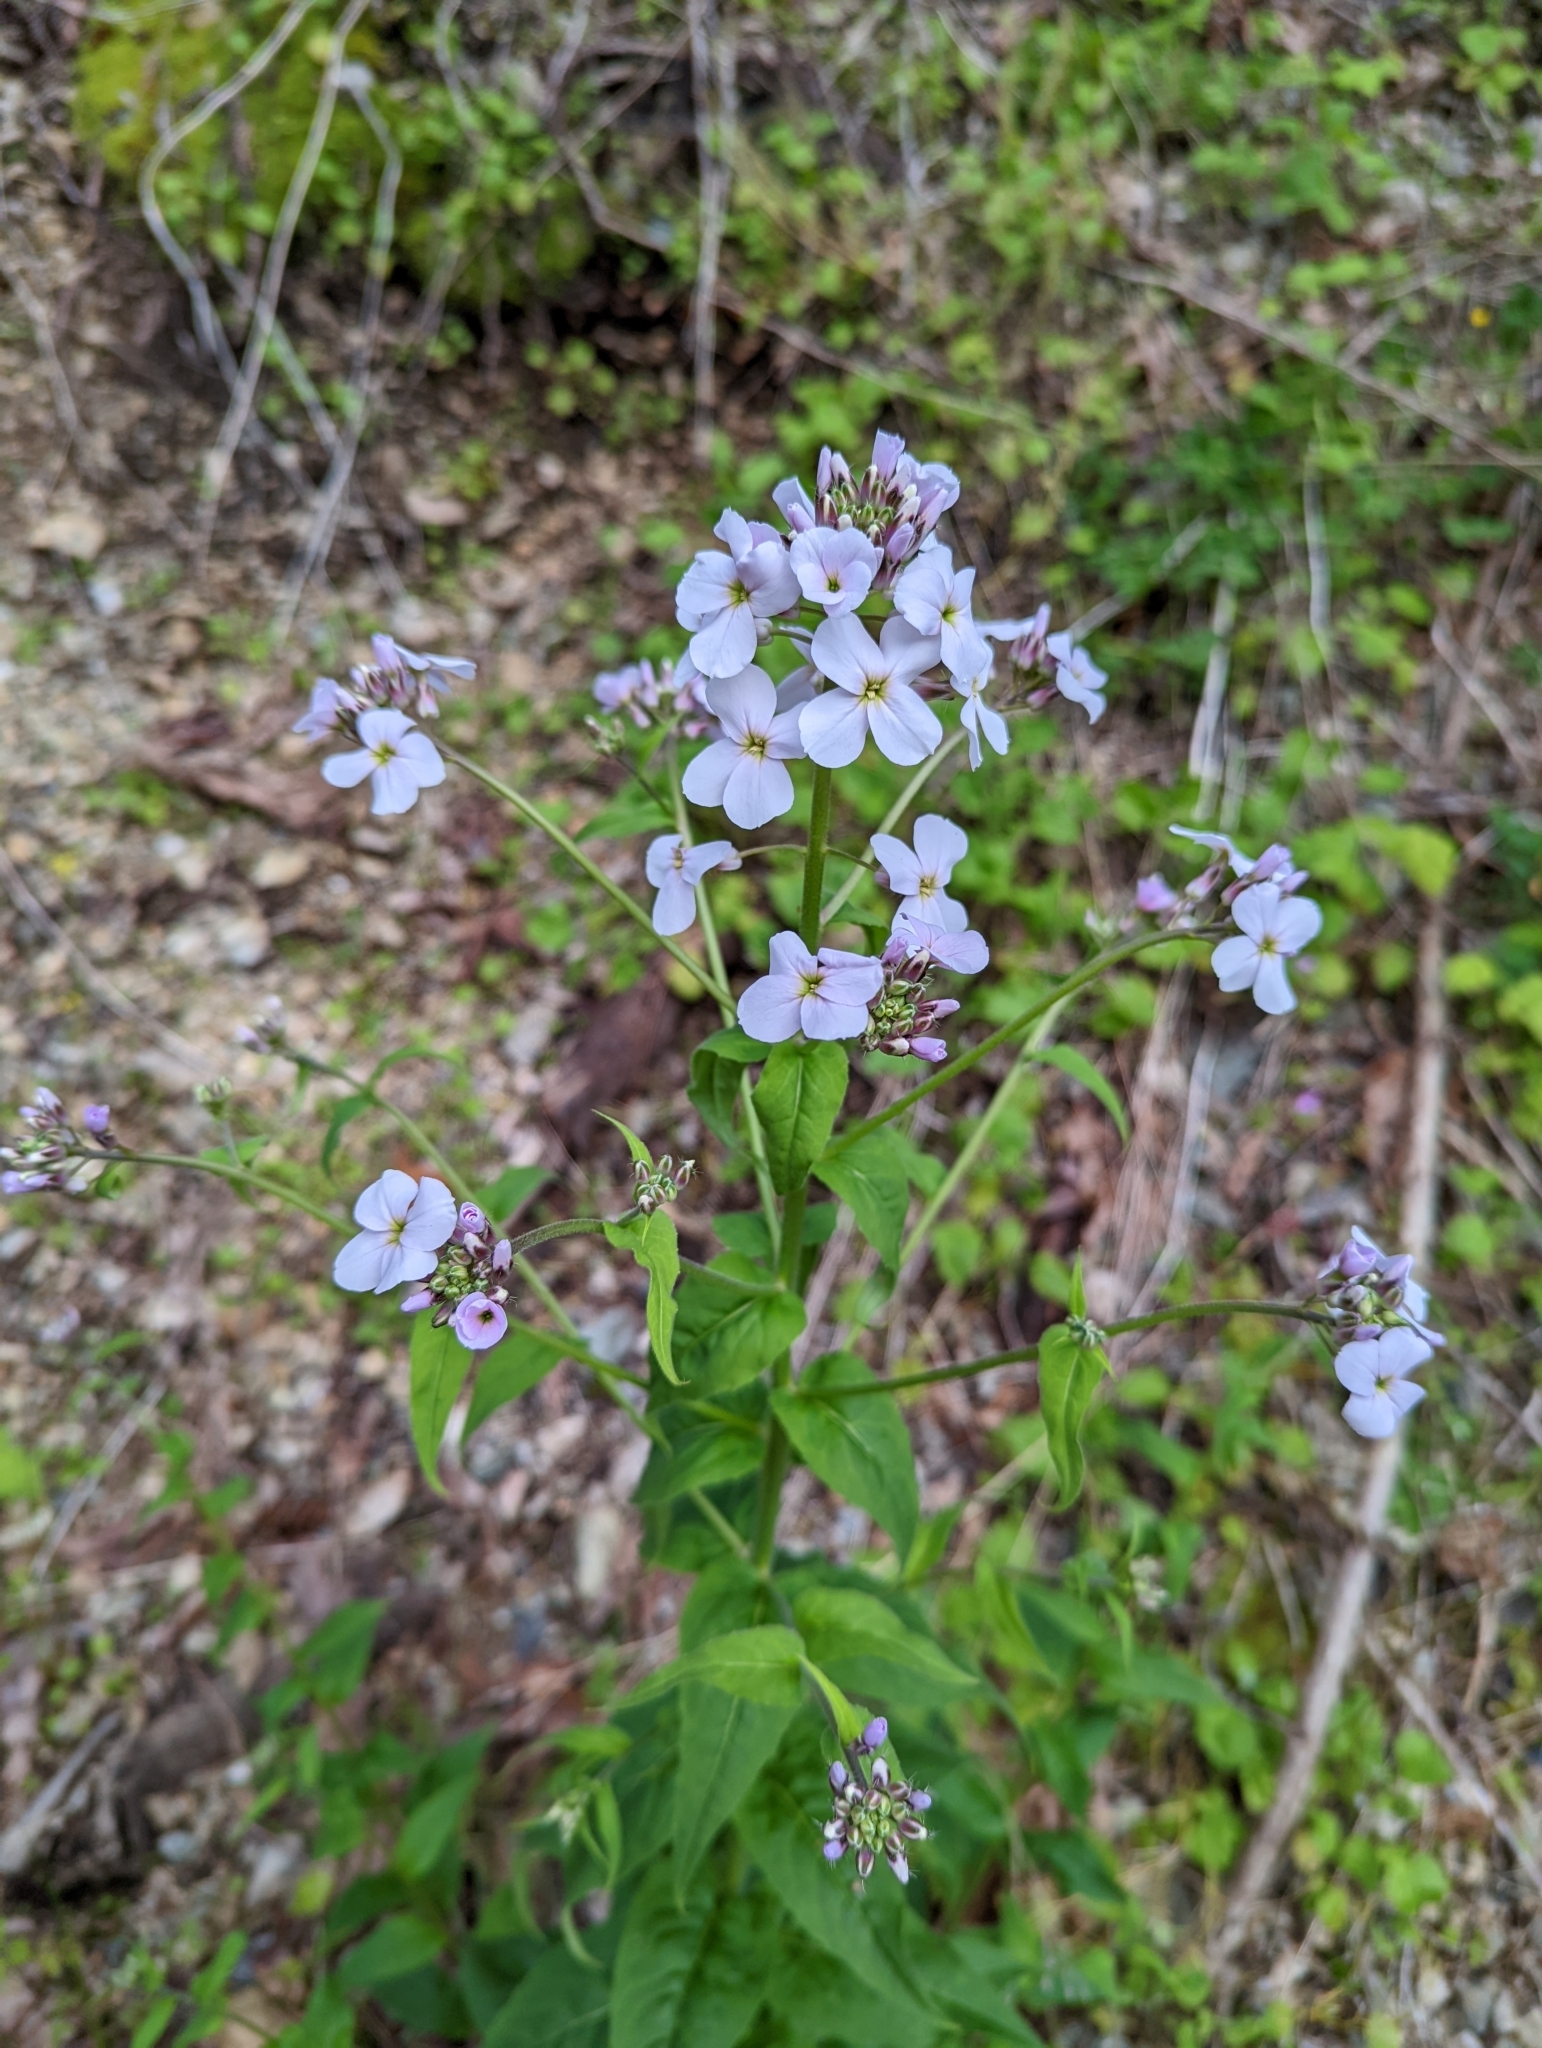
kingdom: Plantae
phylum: Tracheophyta
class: Magnoliopsida
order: Brassicales
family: Brassicaceae
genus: Hesperis
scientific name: Hesperis matronalis
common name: Dame's-violet
